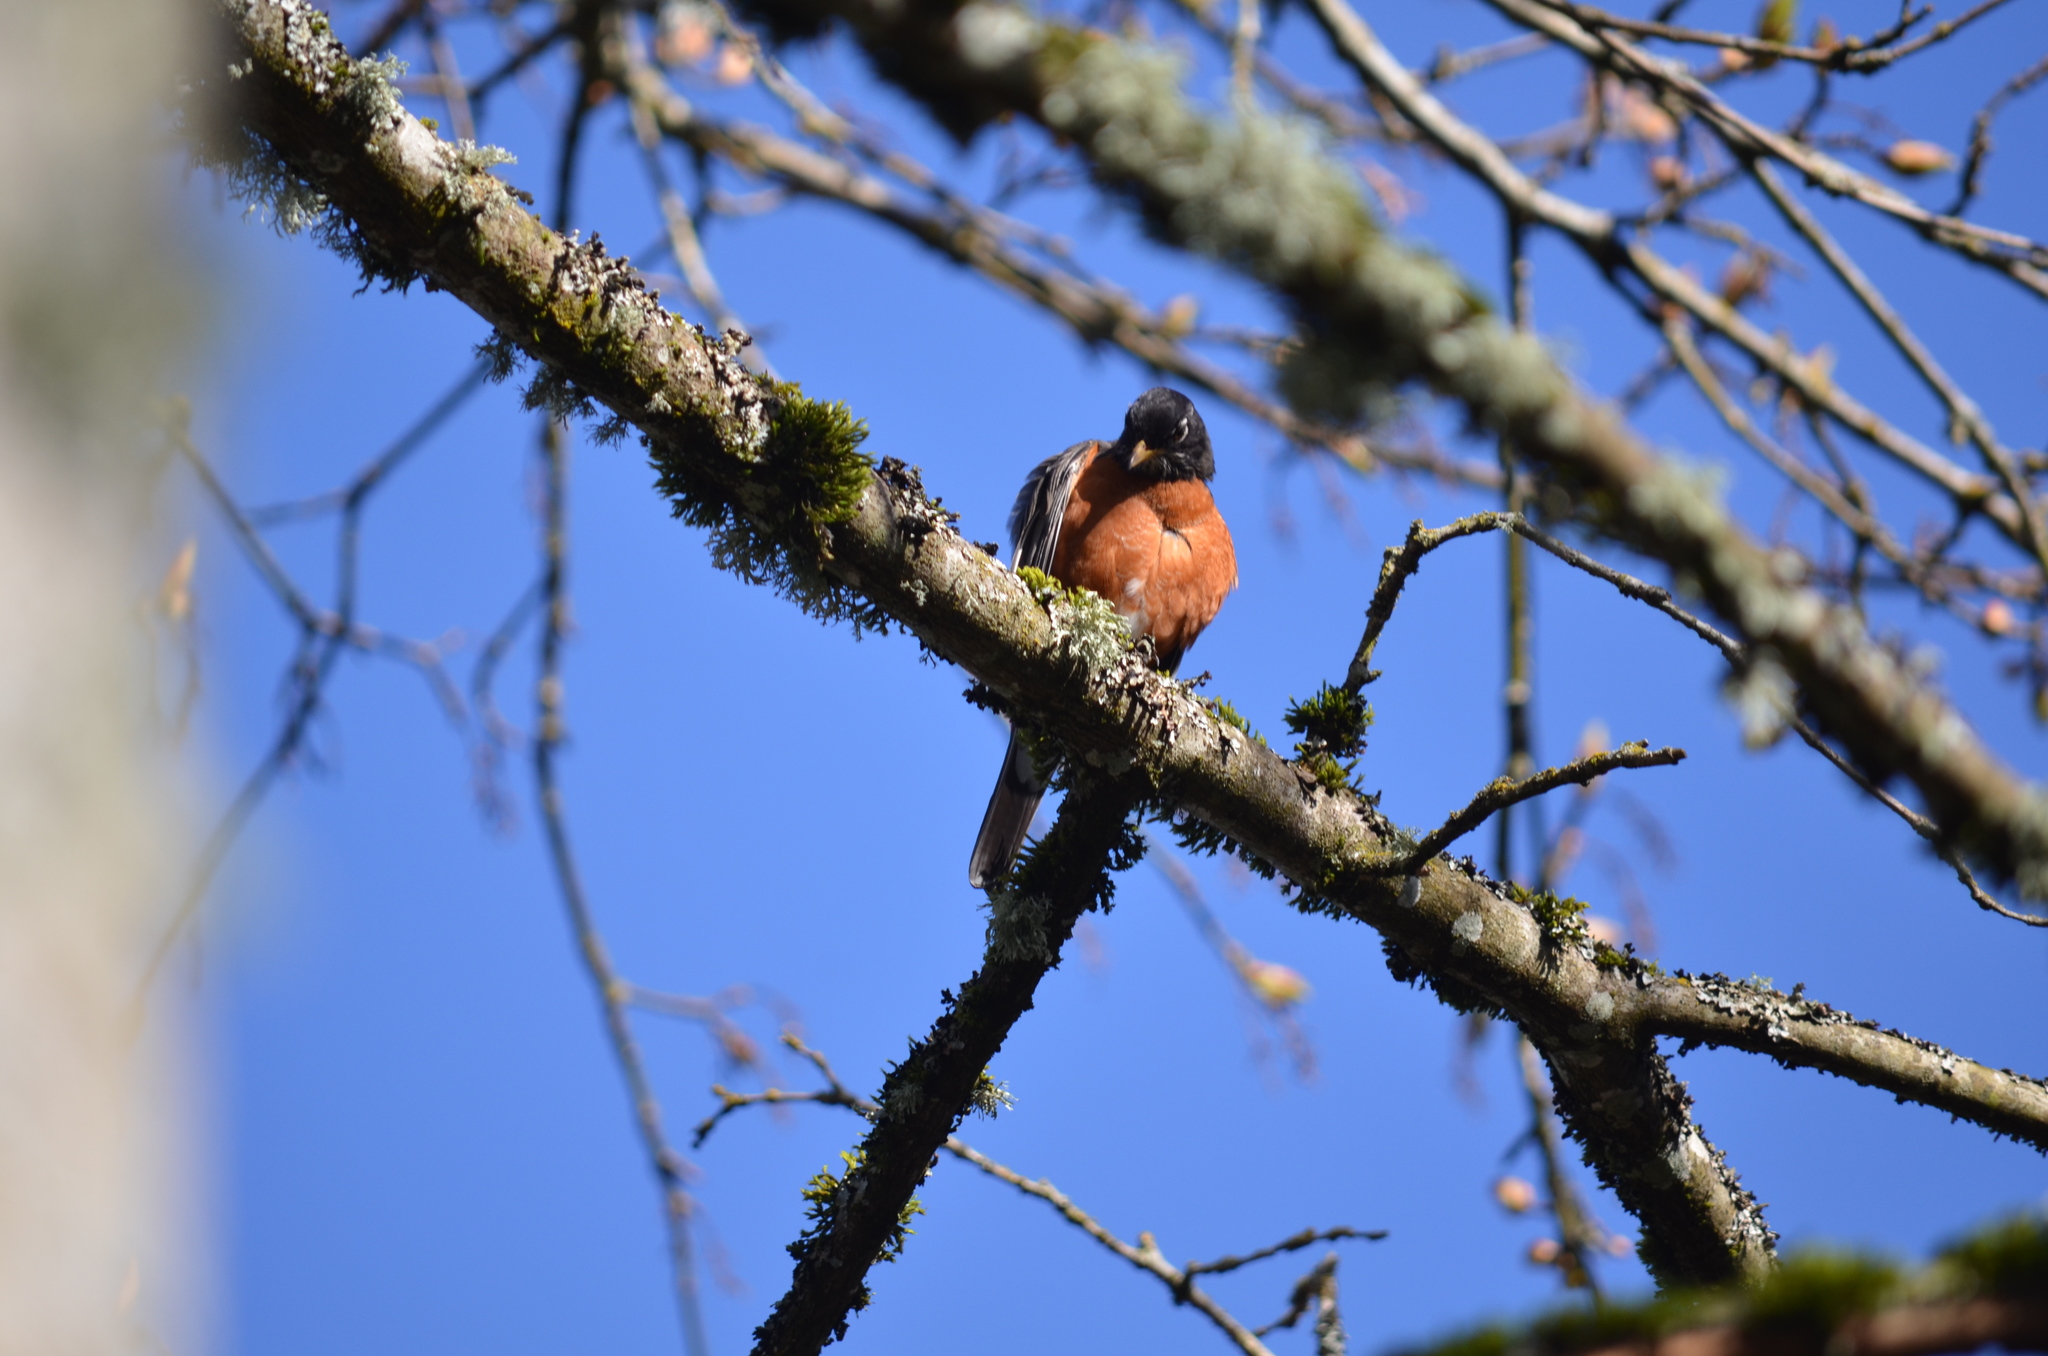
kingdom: Animalia
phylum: Chordata
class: Aves
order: Passeriformes
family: Turdidae
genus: Turdus
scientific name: Turdus migratorius
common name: American robin
